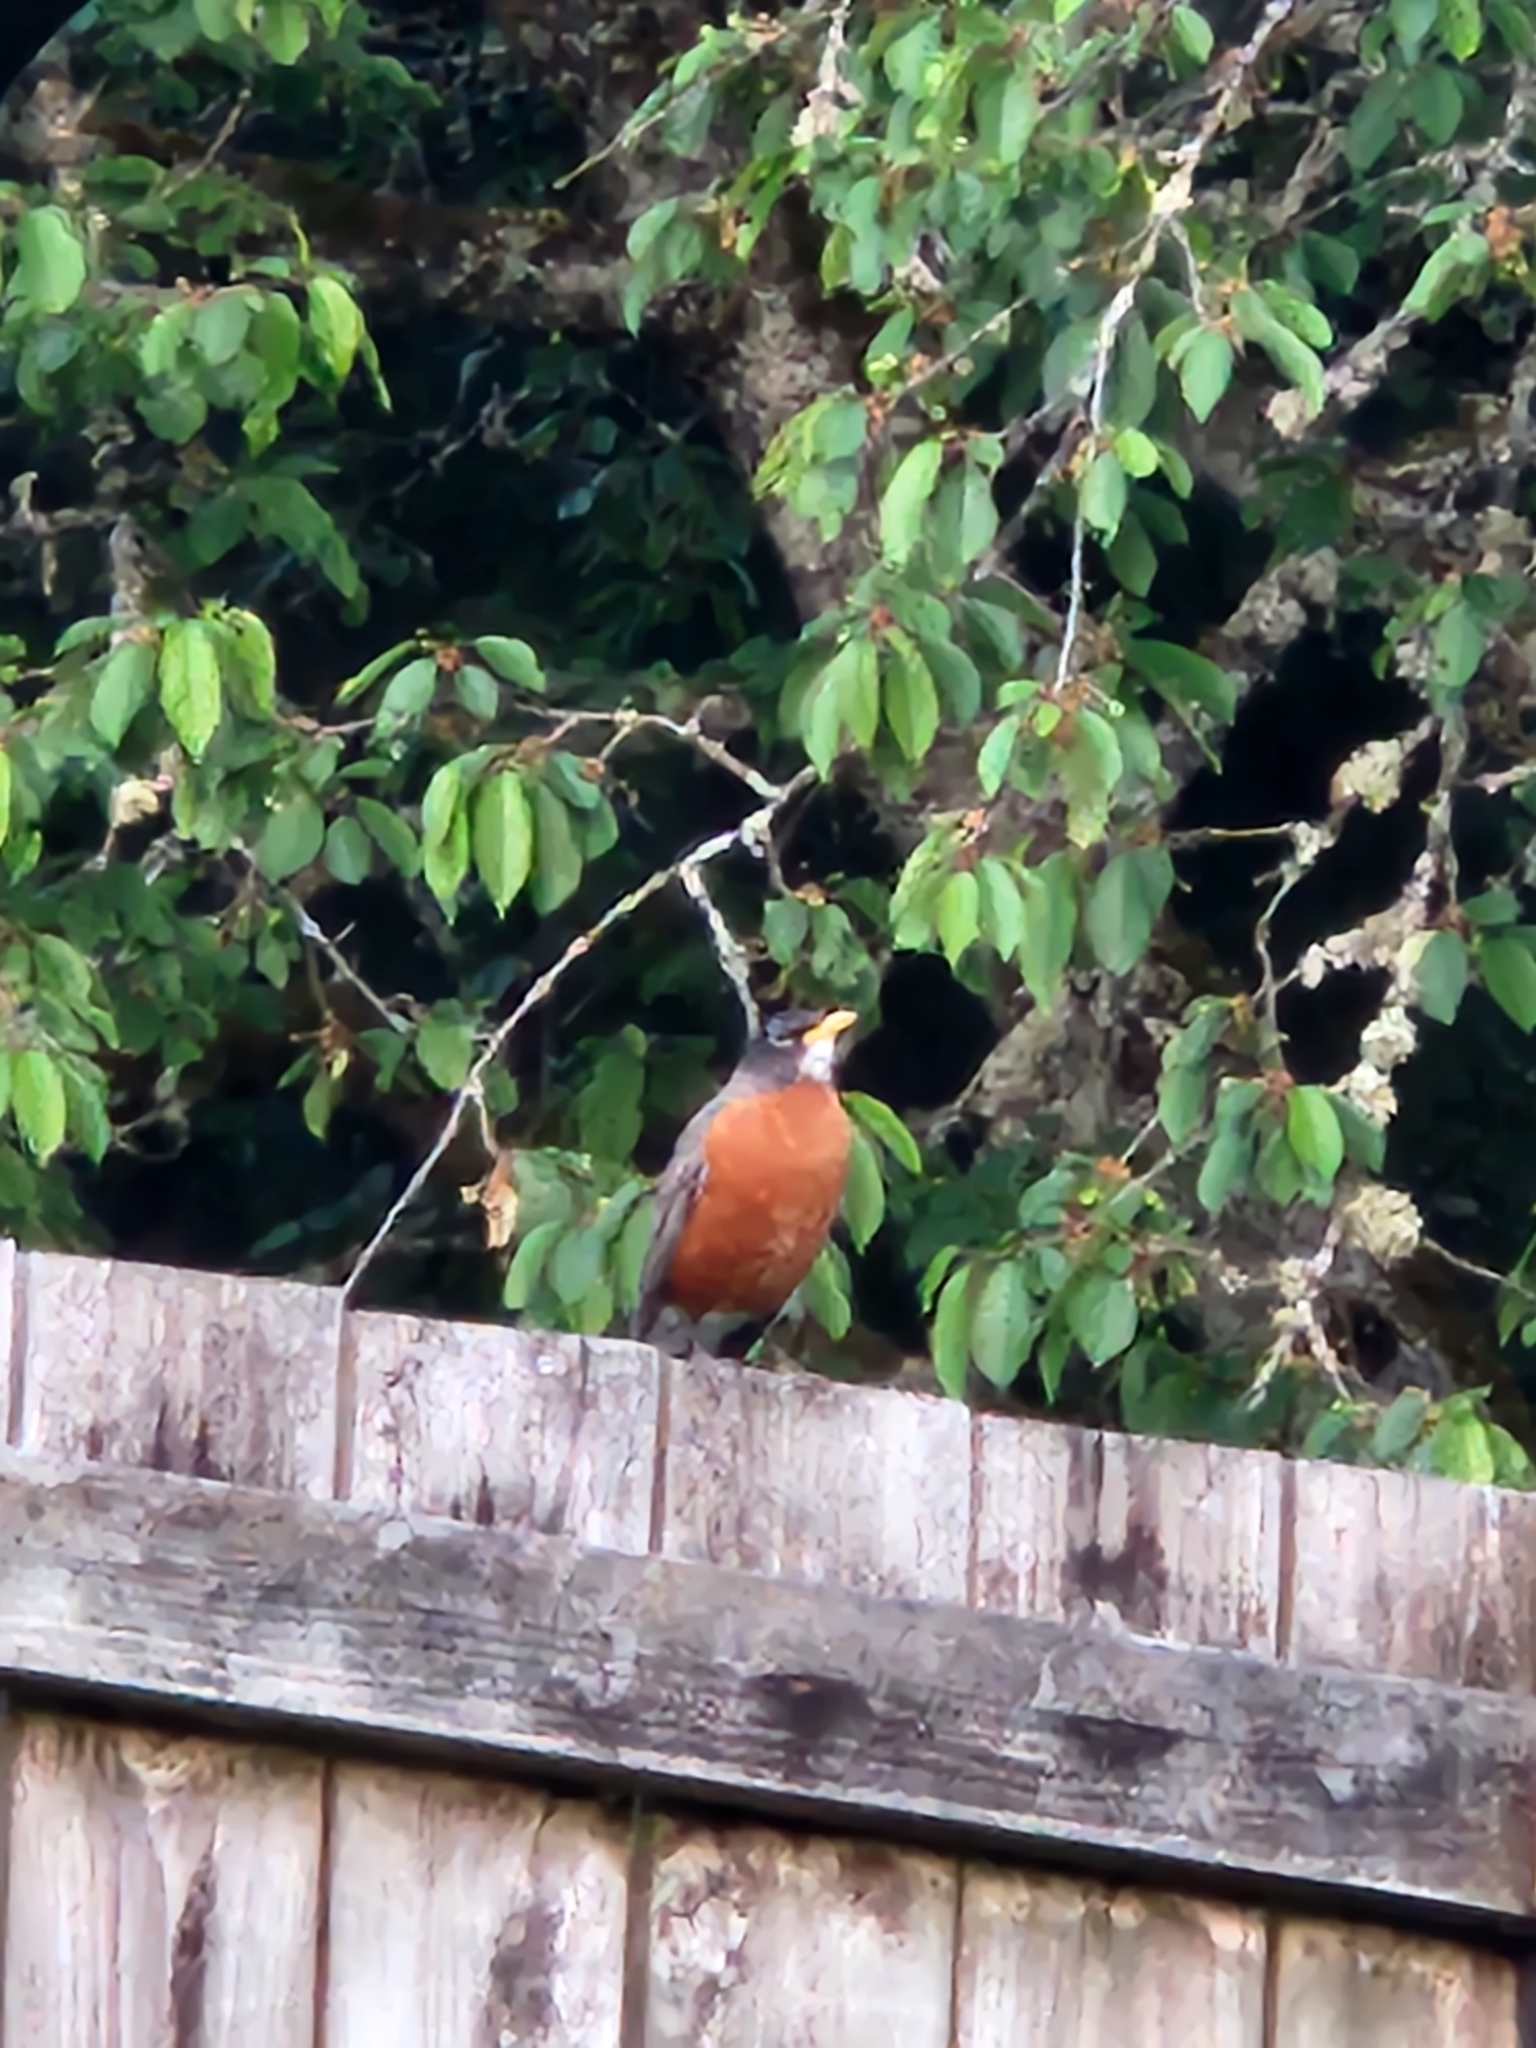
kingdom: Animalia
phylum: Chordata
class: Aves
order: Passeriformes
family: Turdidae
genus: Turdus
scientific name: Turdus migratorius
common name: American robin
